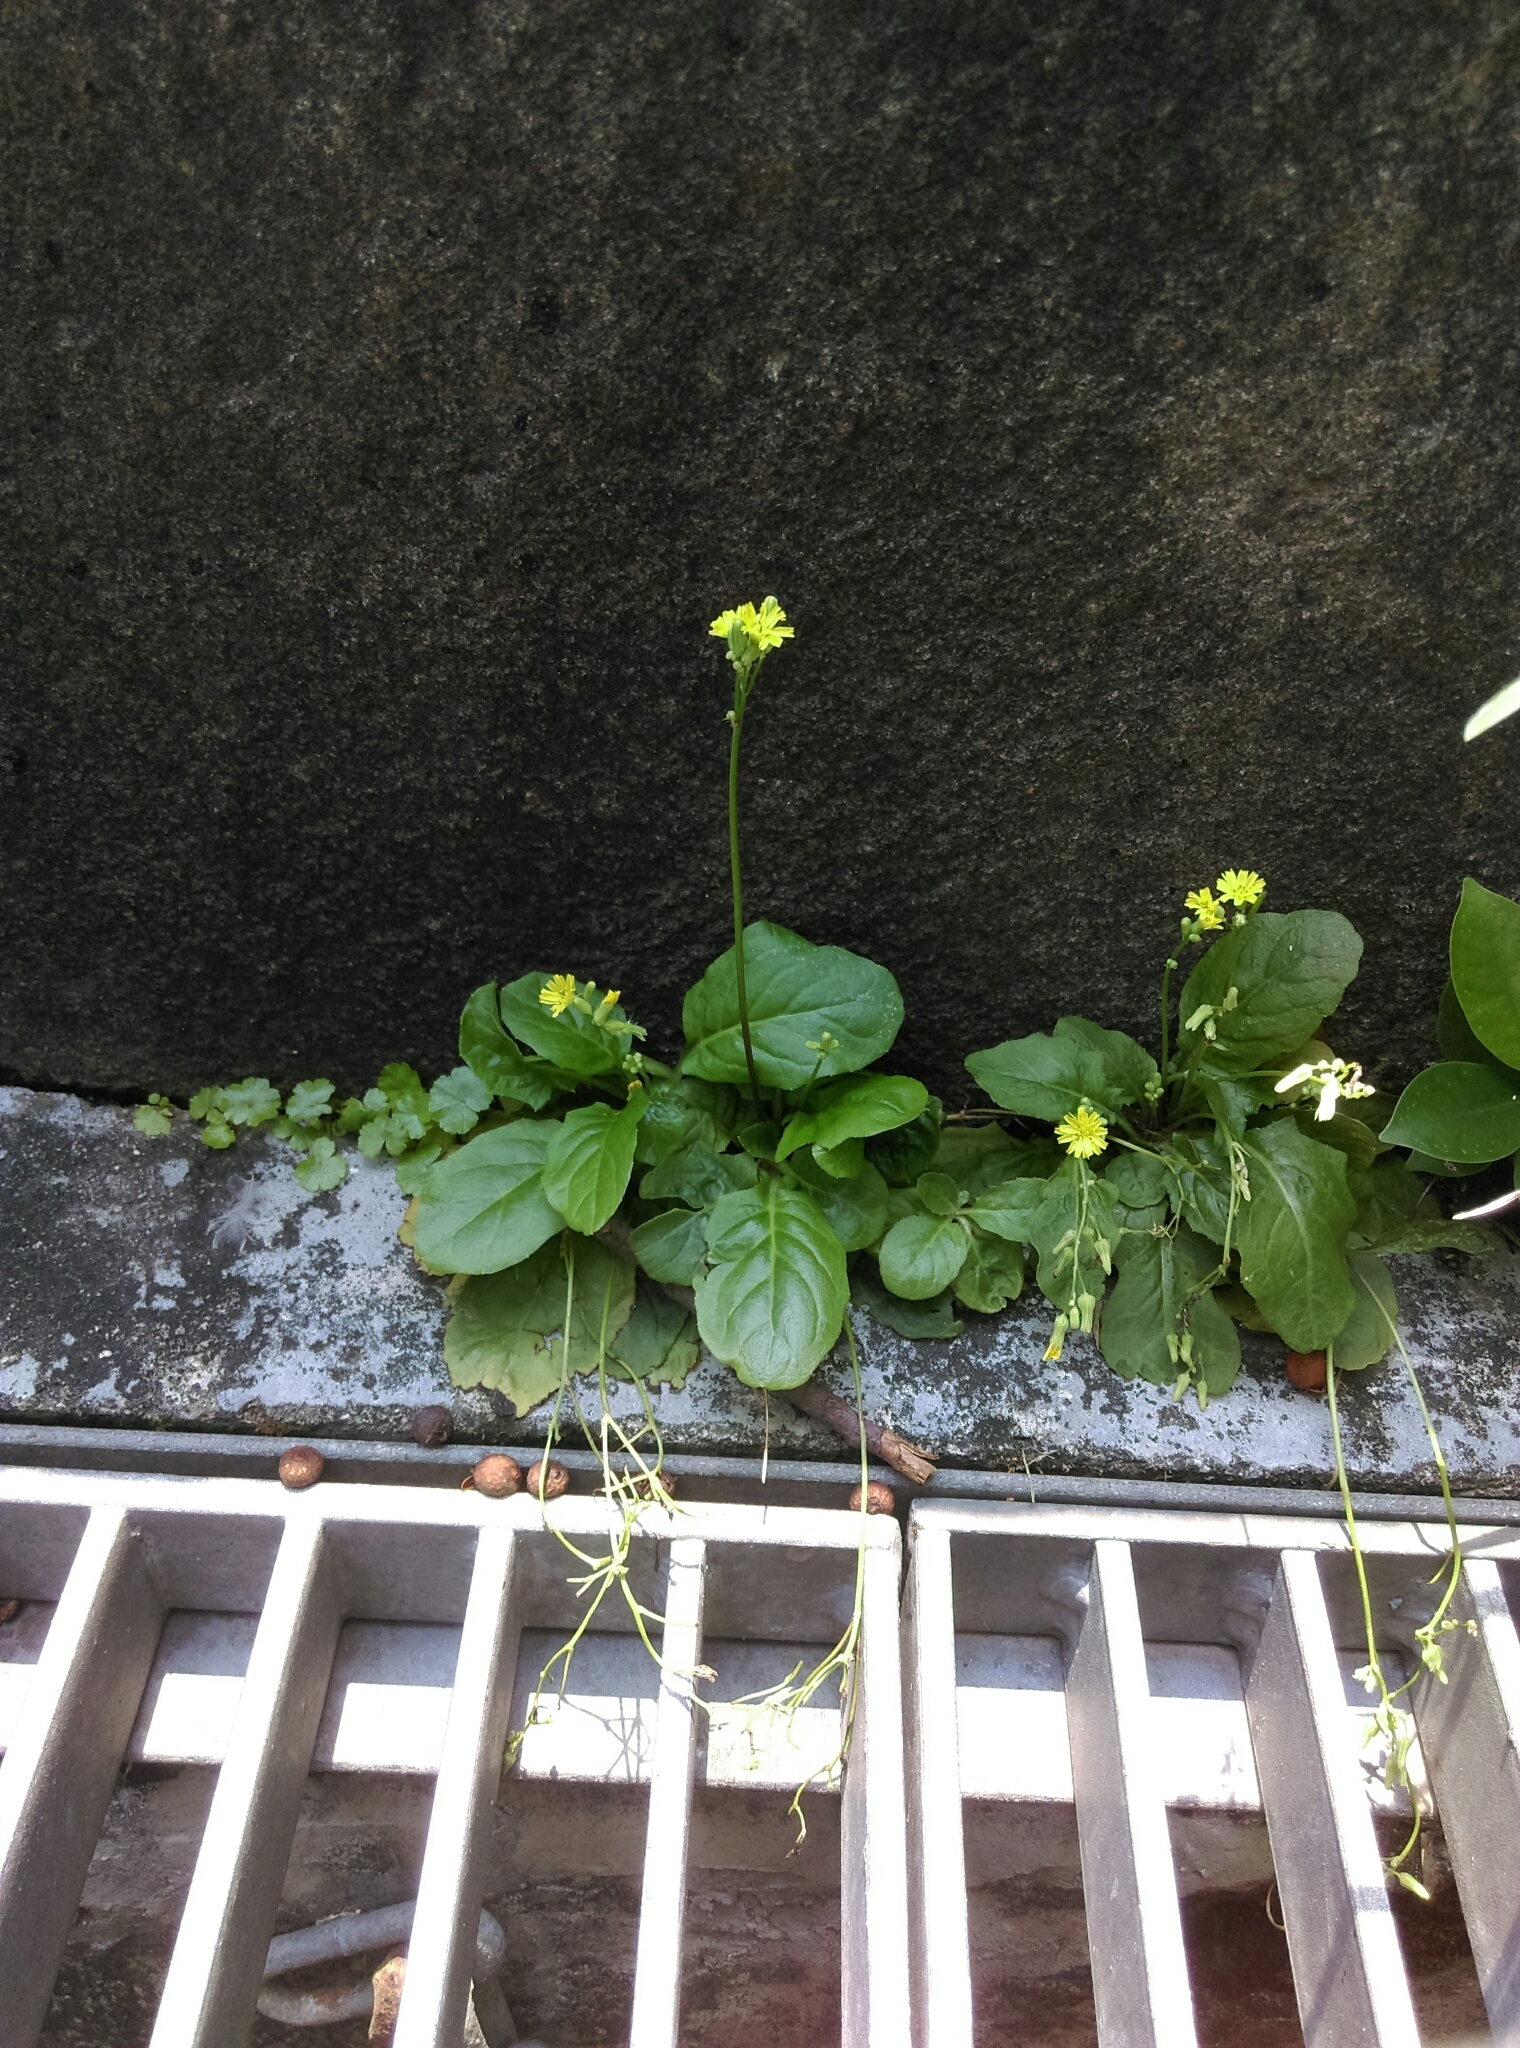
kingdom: Plantae
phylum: Tracheophyta
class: Magnoliopsida
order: Asterales
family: Asteraceae
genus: Youngia
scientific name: Youngia japonica
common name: Oriental false hawksbeard
